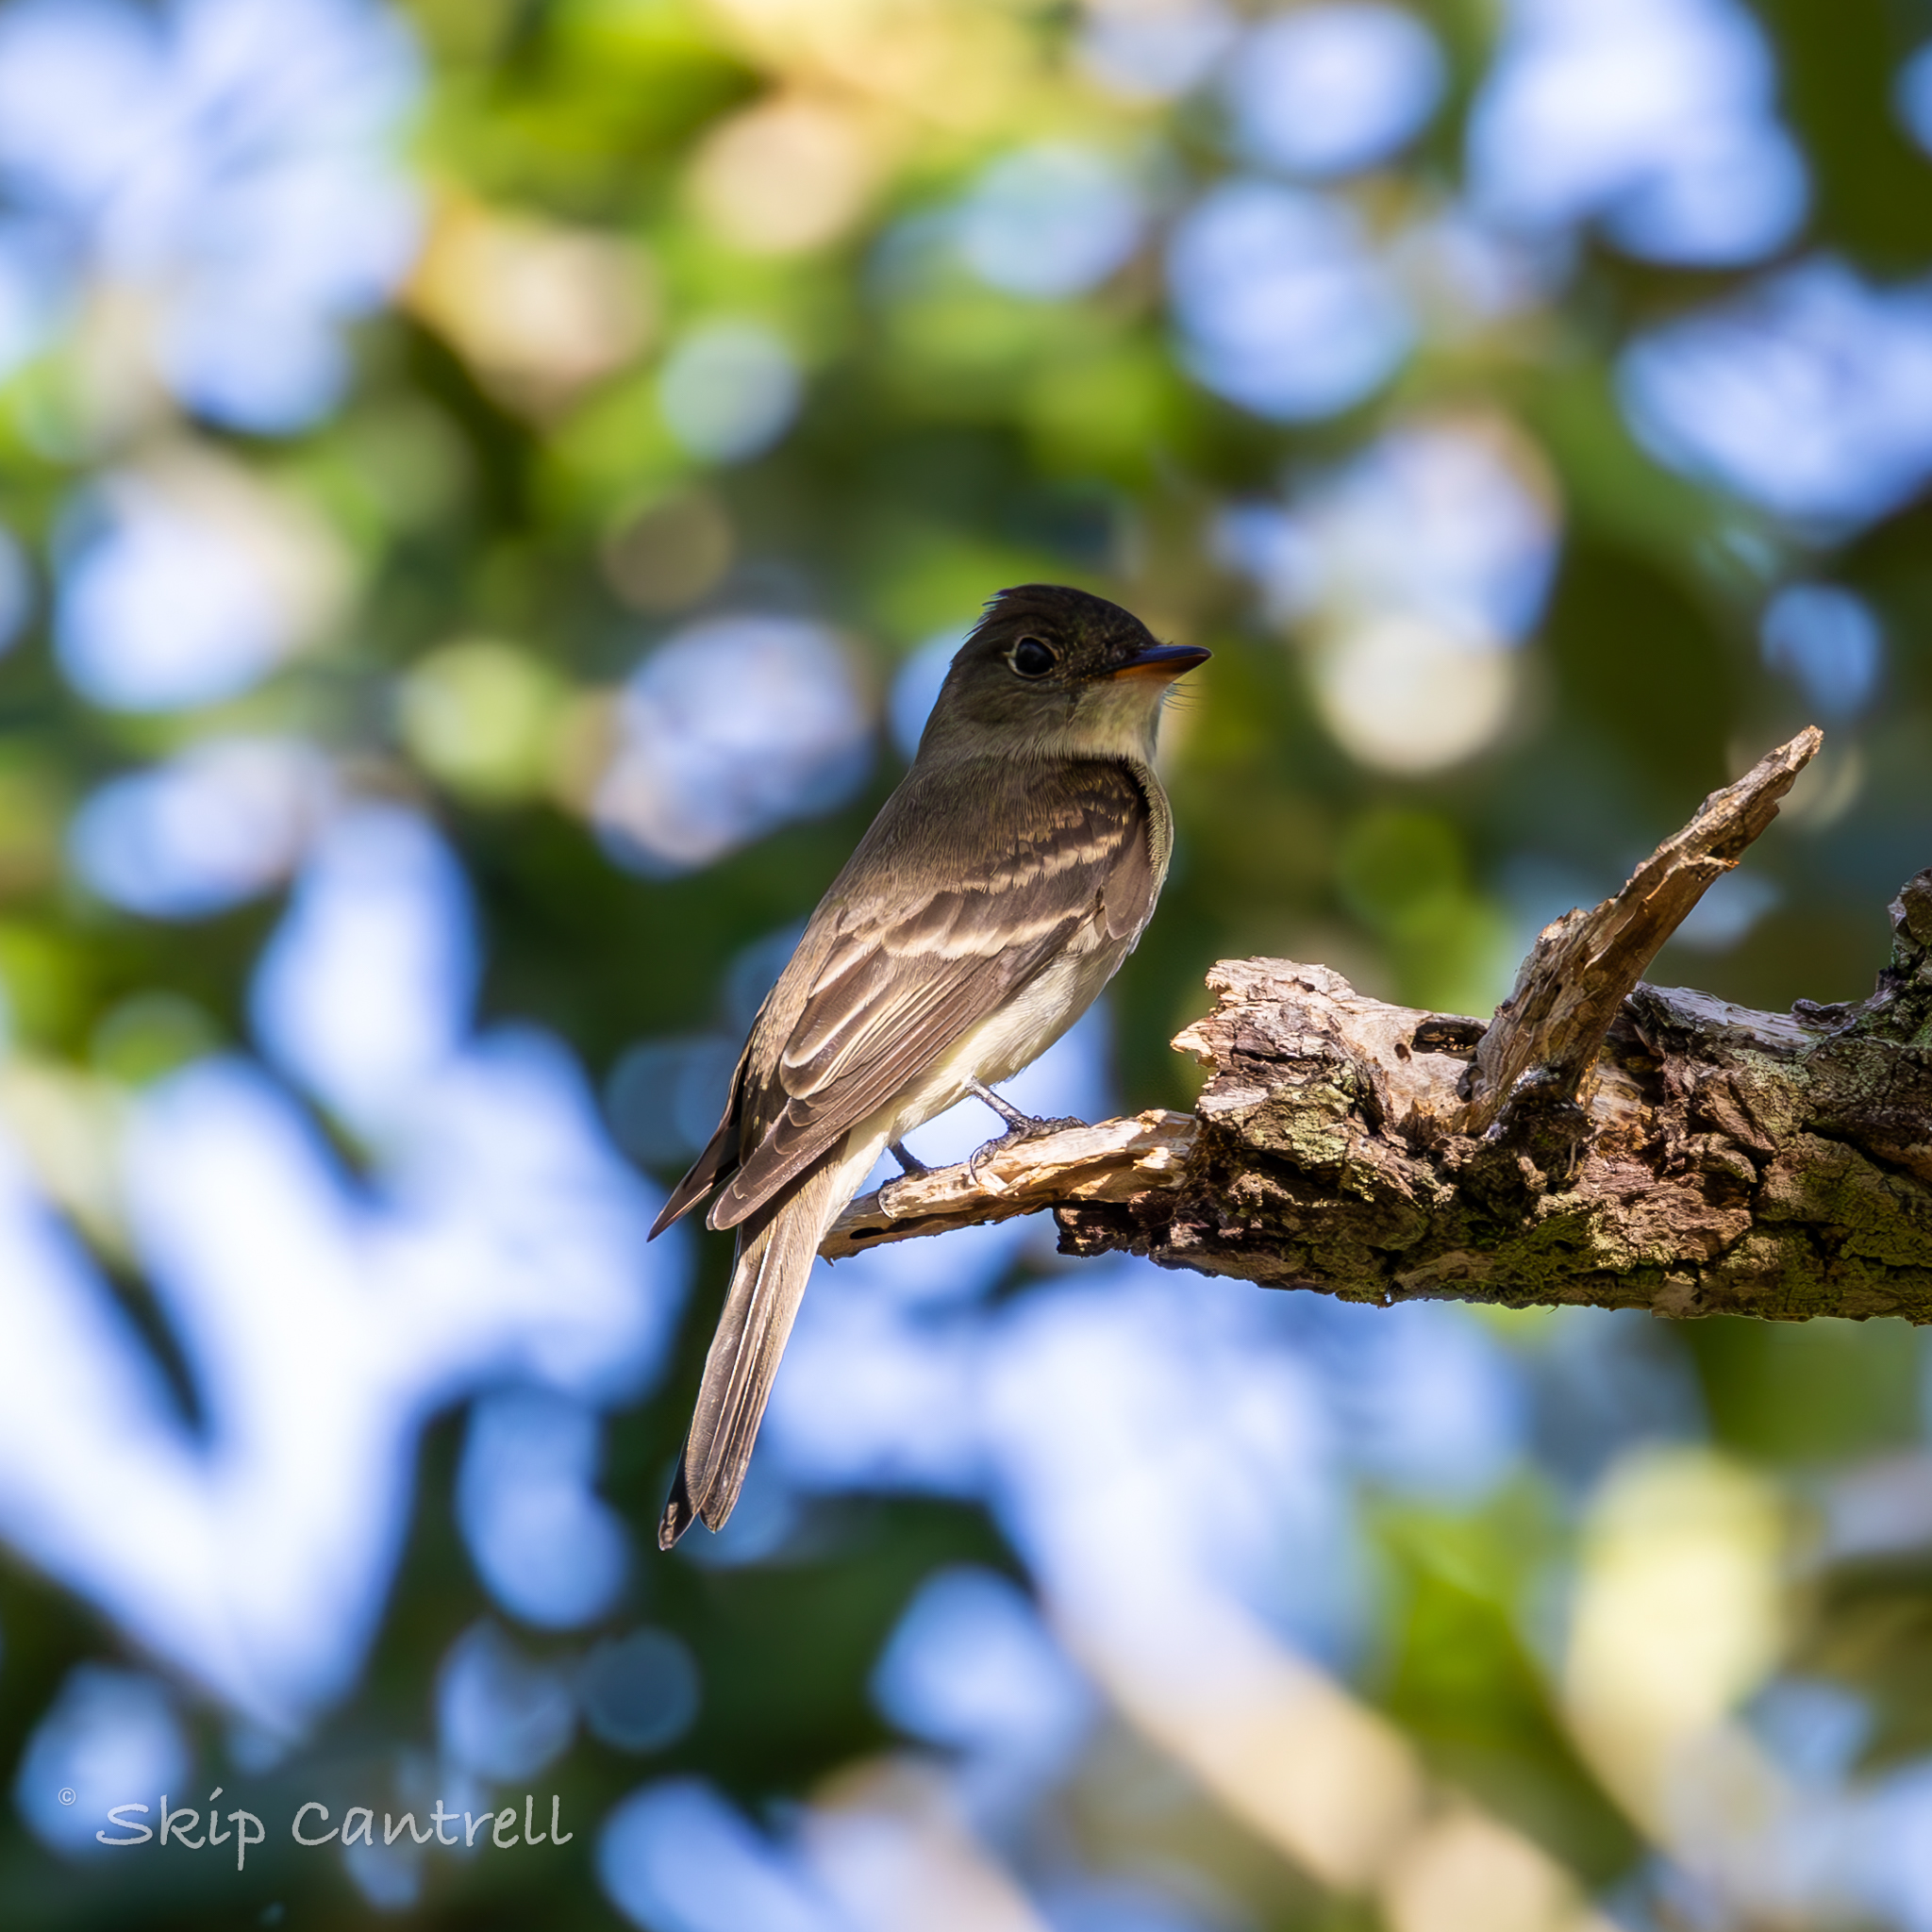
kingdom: Animalia
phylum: Chordata
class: Aves
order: Passeriformes
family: Tyrannidae
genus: Contopus
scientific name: Contopus virens
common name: Eastern wood-pewee
